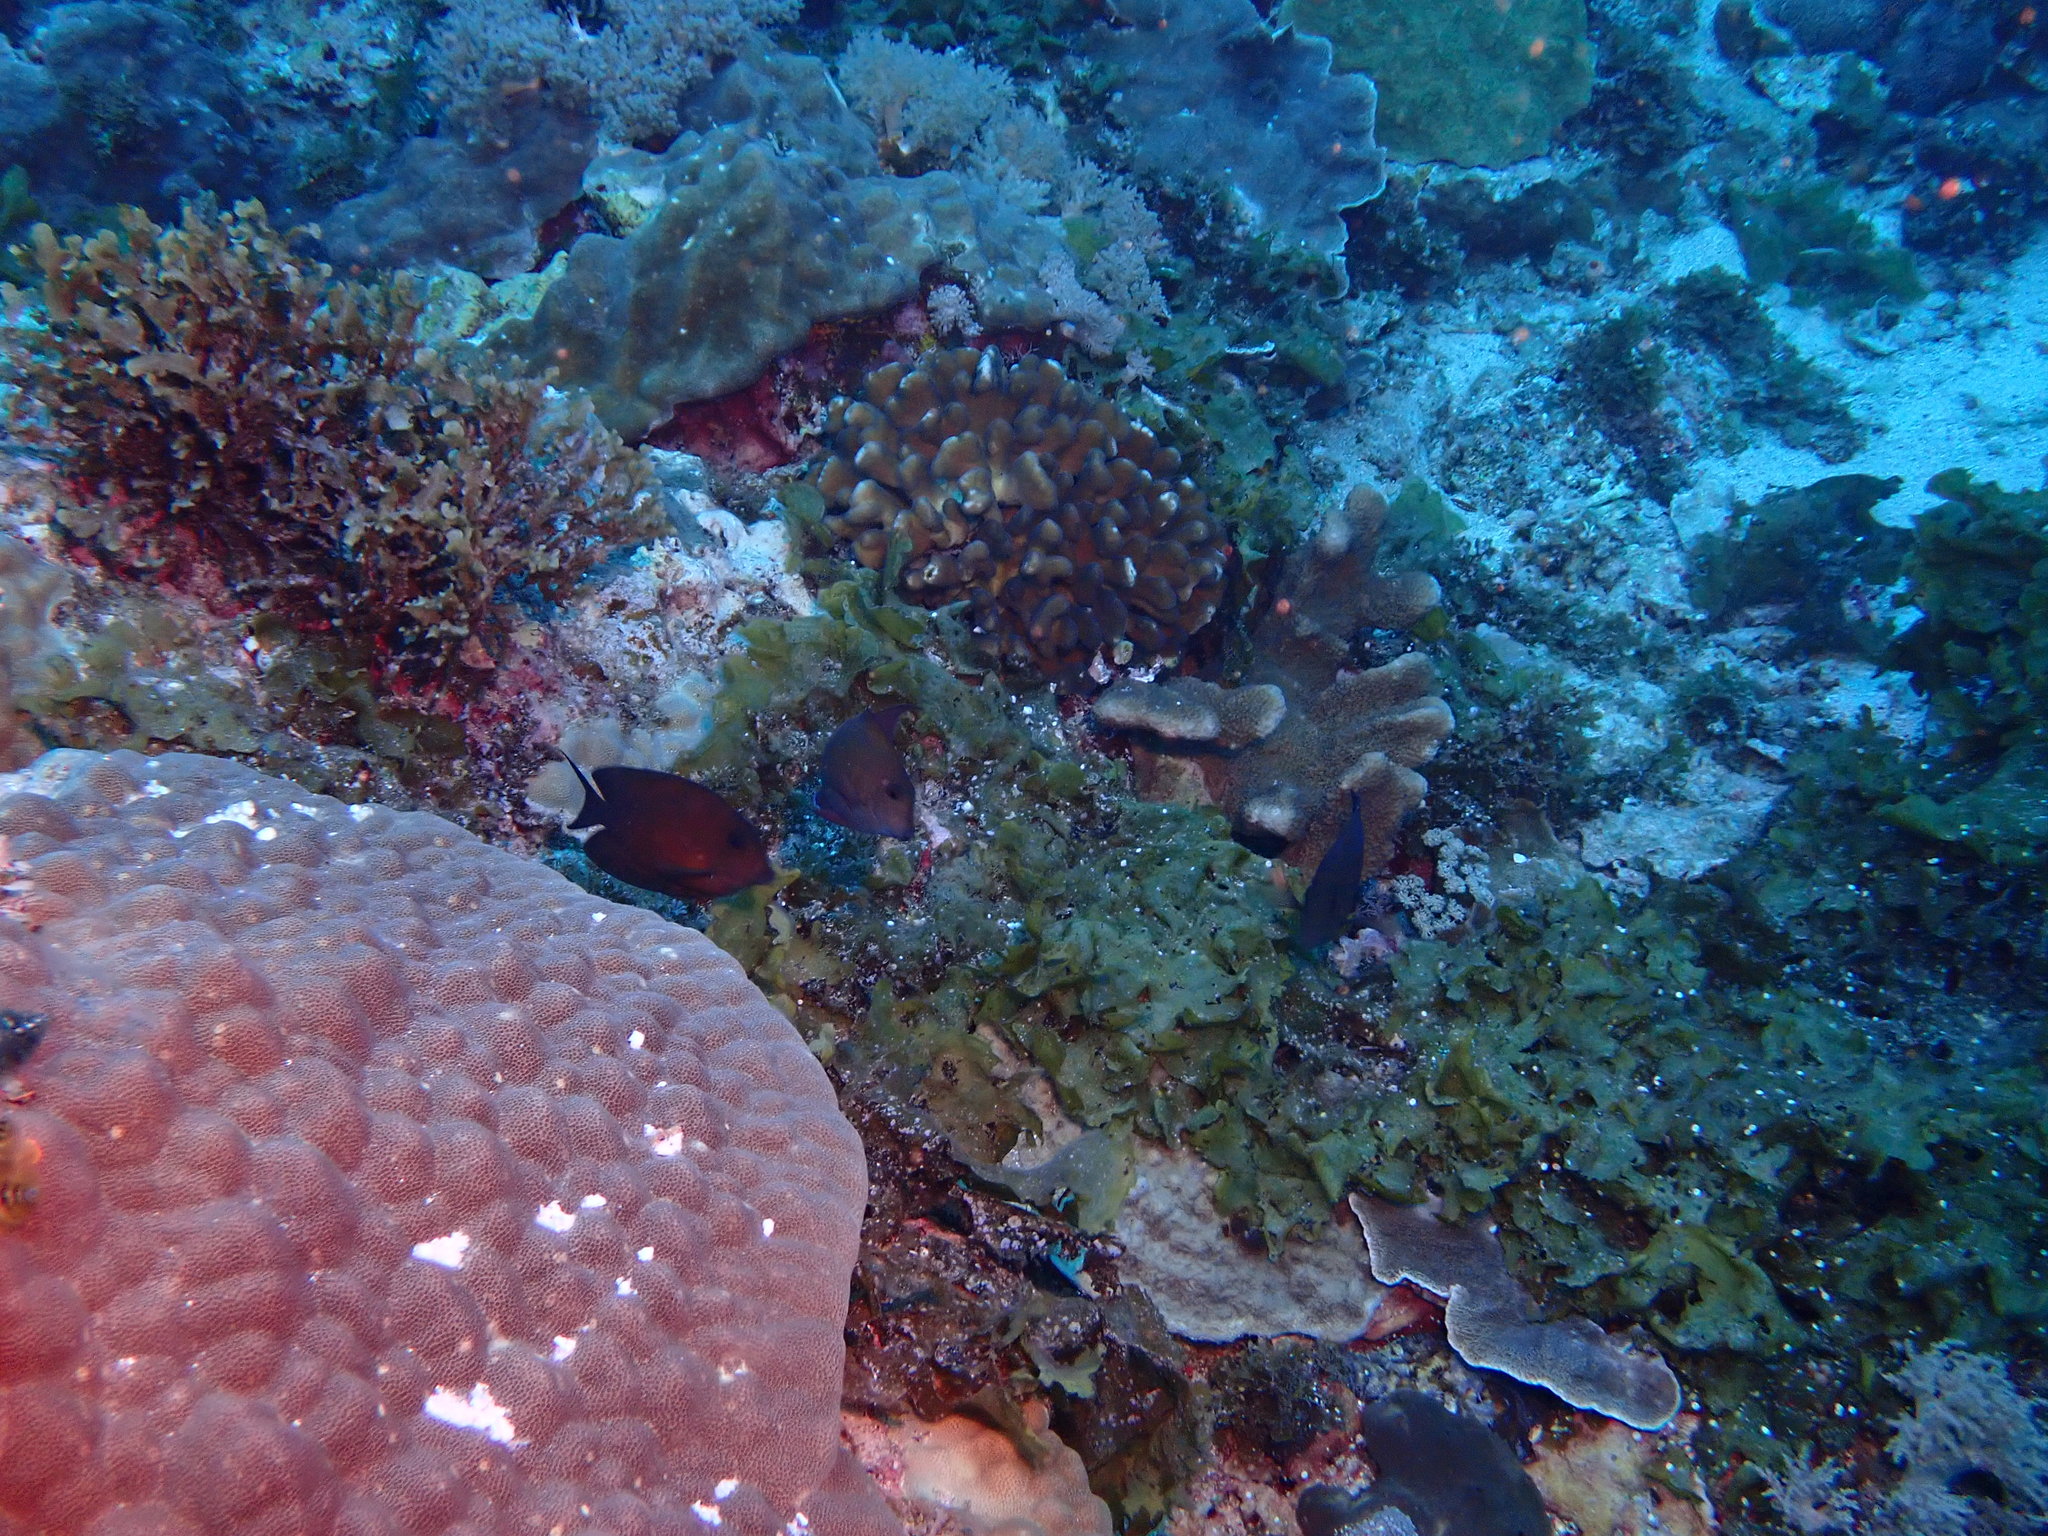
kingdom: Animalia
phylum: Chordata
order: Perciformes
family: Acanthuridae
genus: Acanthurus
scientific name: Acanthurus nigrofuscus
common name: Blackspot surgeonfish
